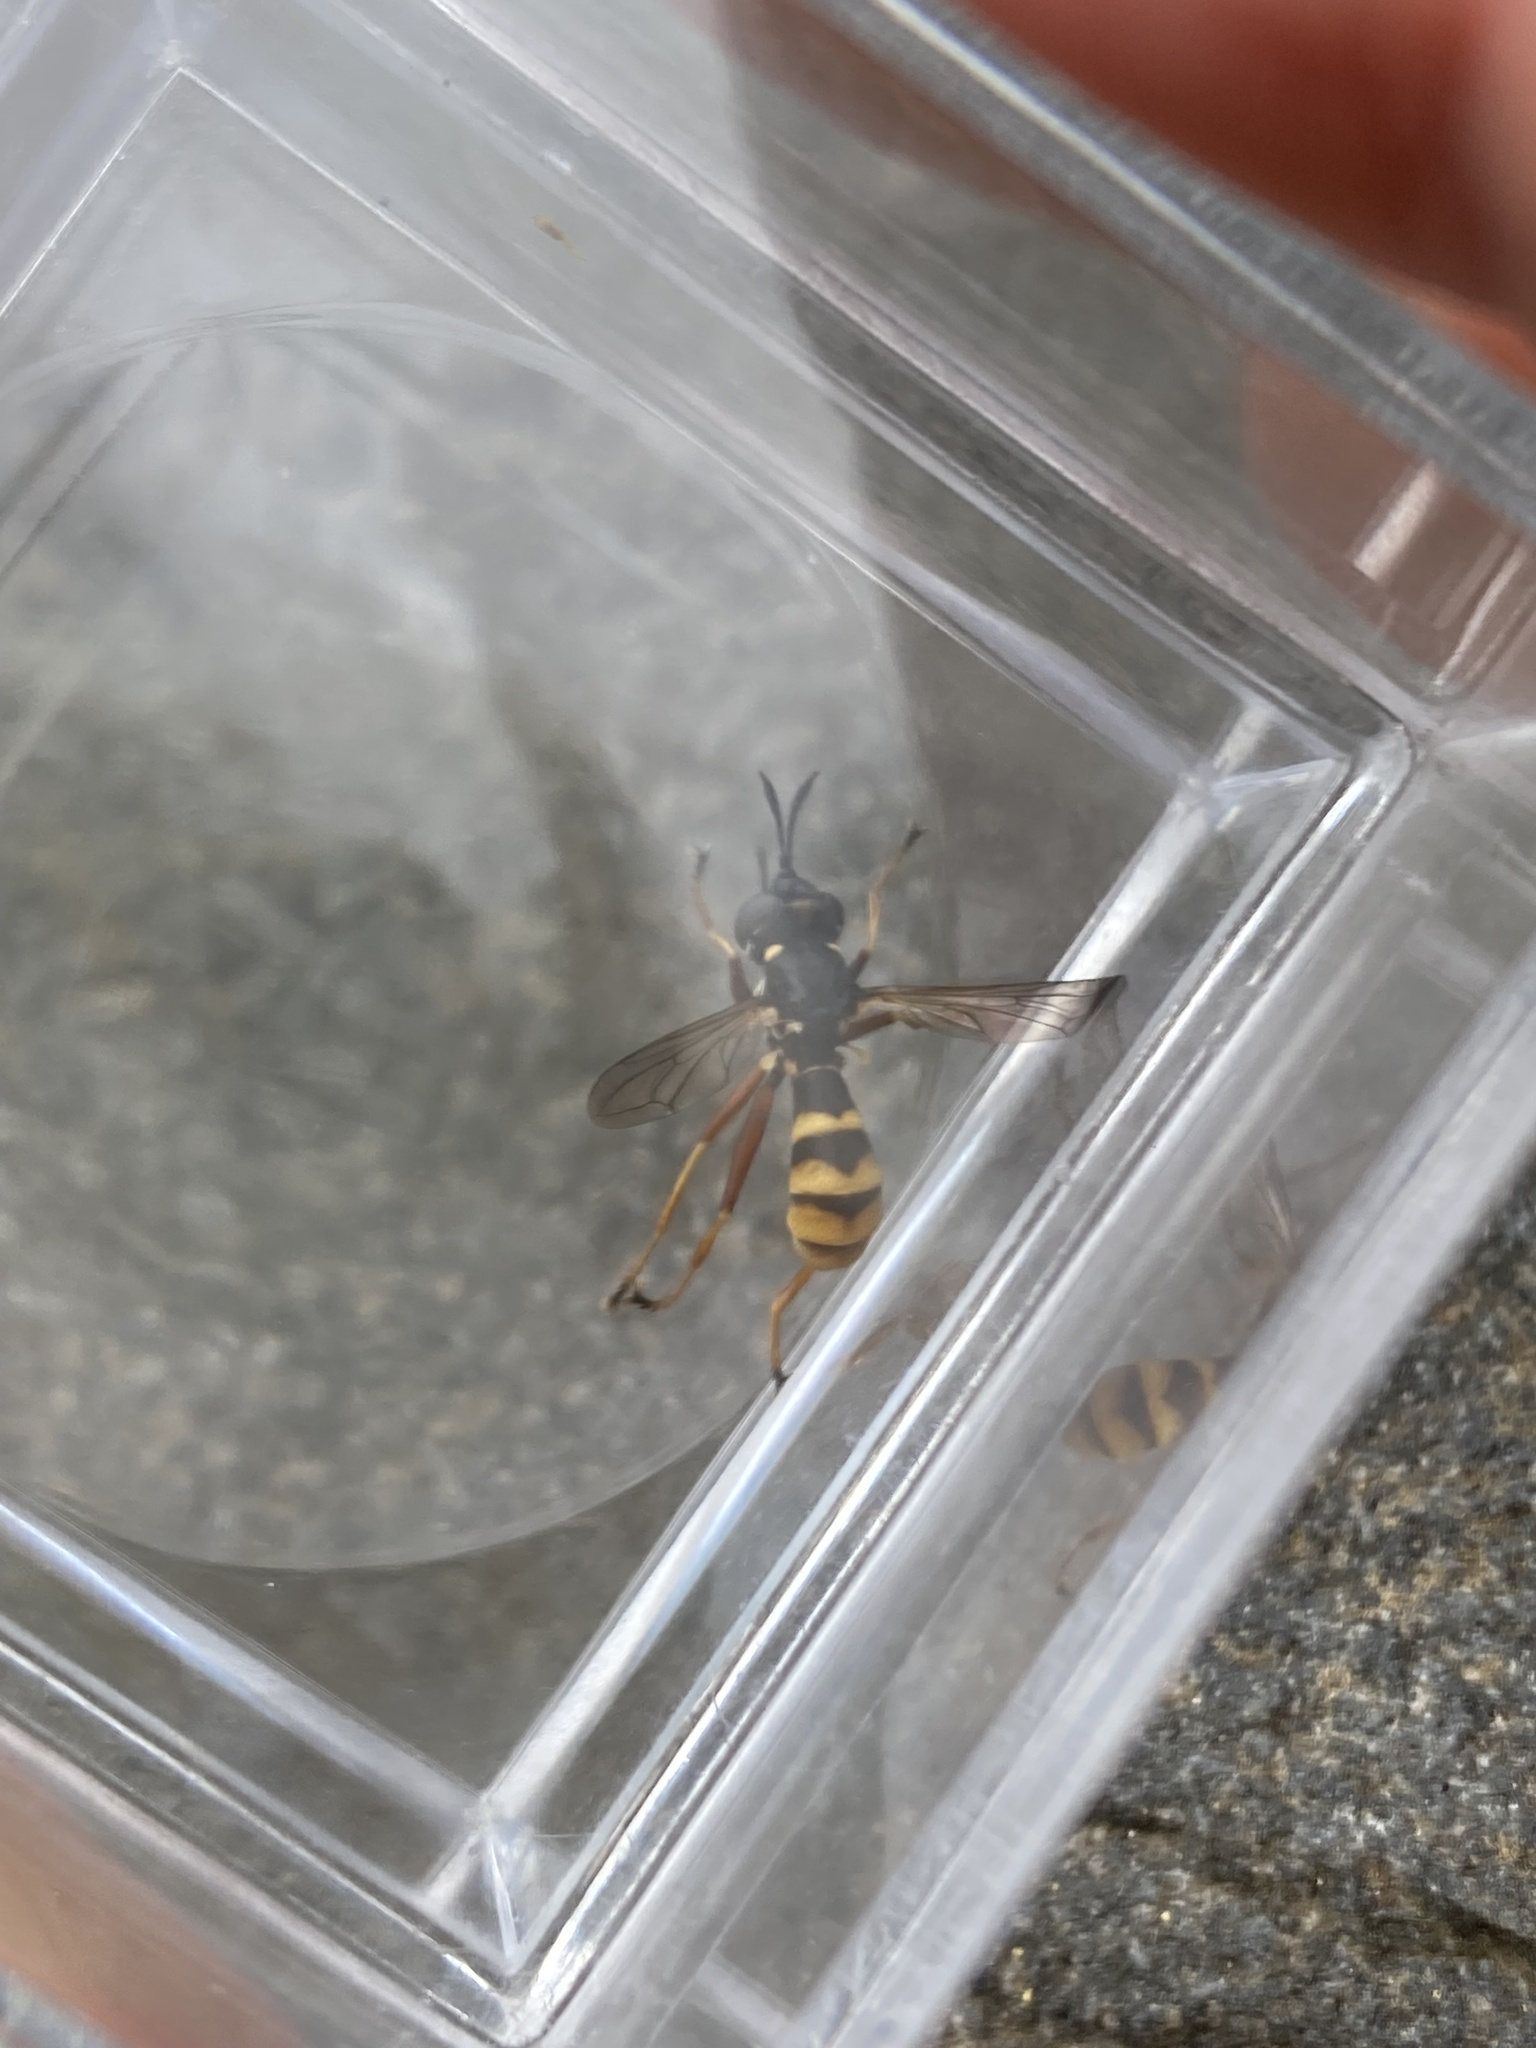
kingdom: Animalia
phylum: Arthropoda
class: Insecta
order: Diptera
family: Conopidae
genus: Conops
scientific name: Conops quadrifasciatus
